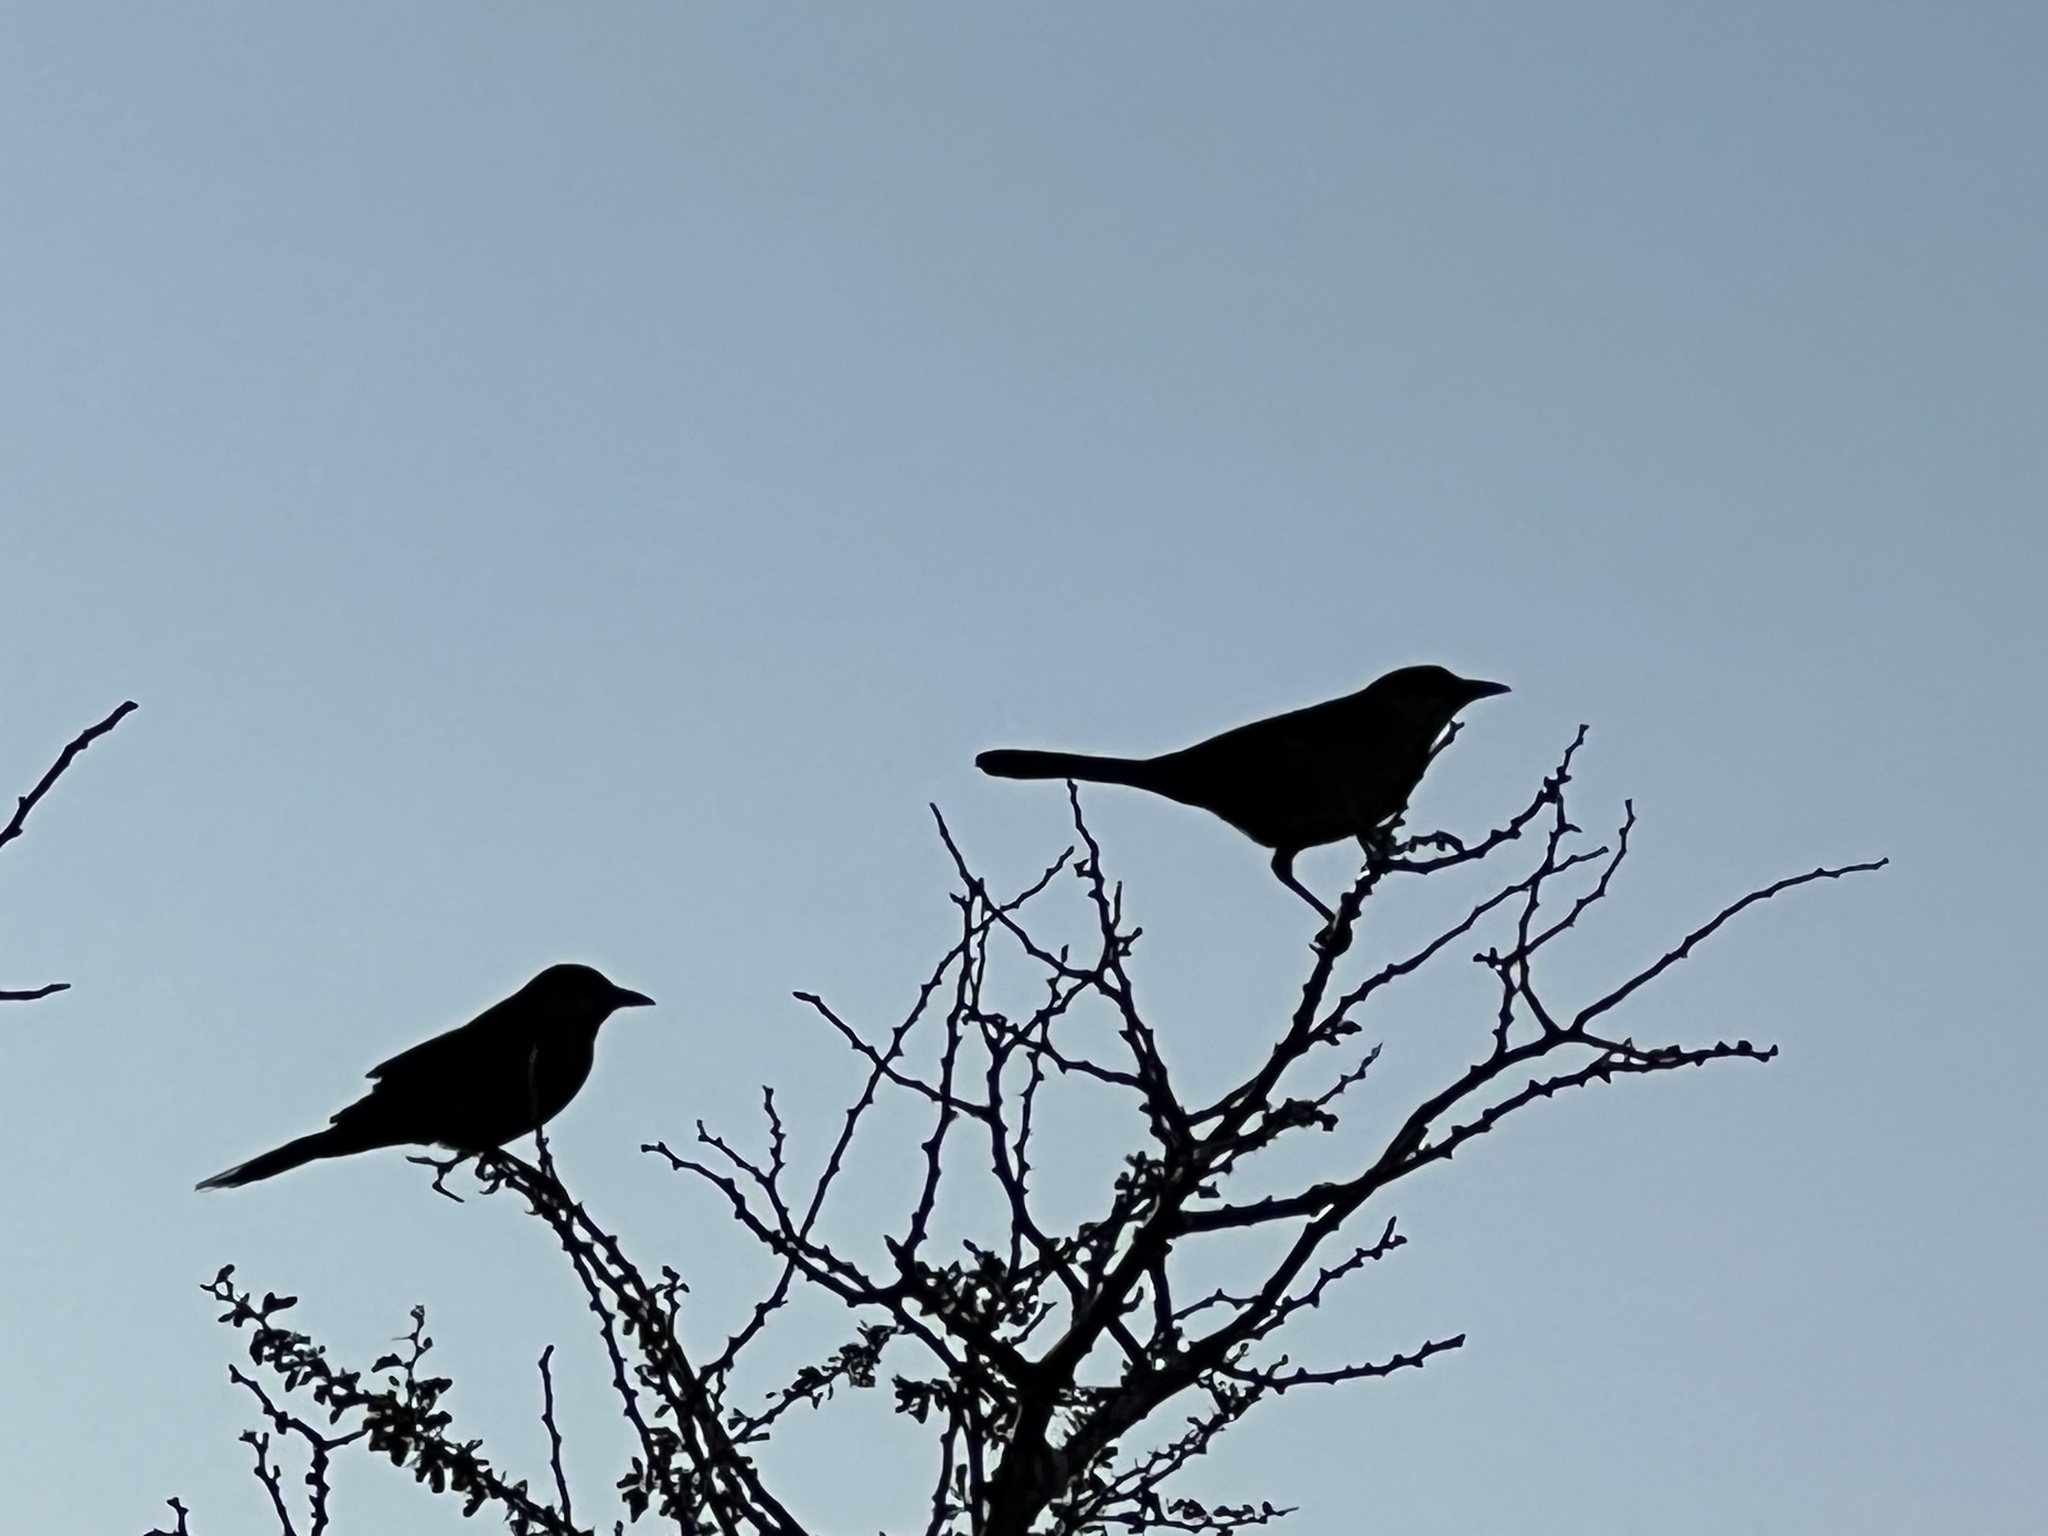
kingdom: Animalia
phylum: Chordata
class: Aves
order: Passeriformes
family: Icteridae
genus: Quiscalus
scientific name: Quiscalus mexicanus
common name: Great-tailed grackle
